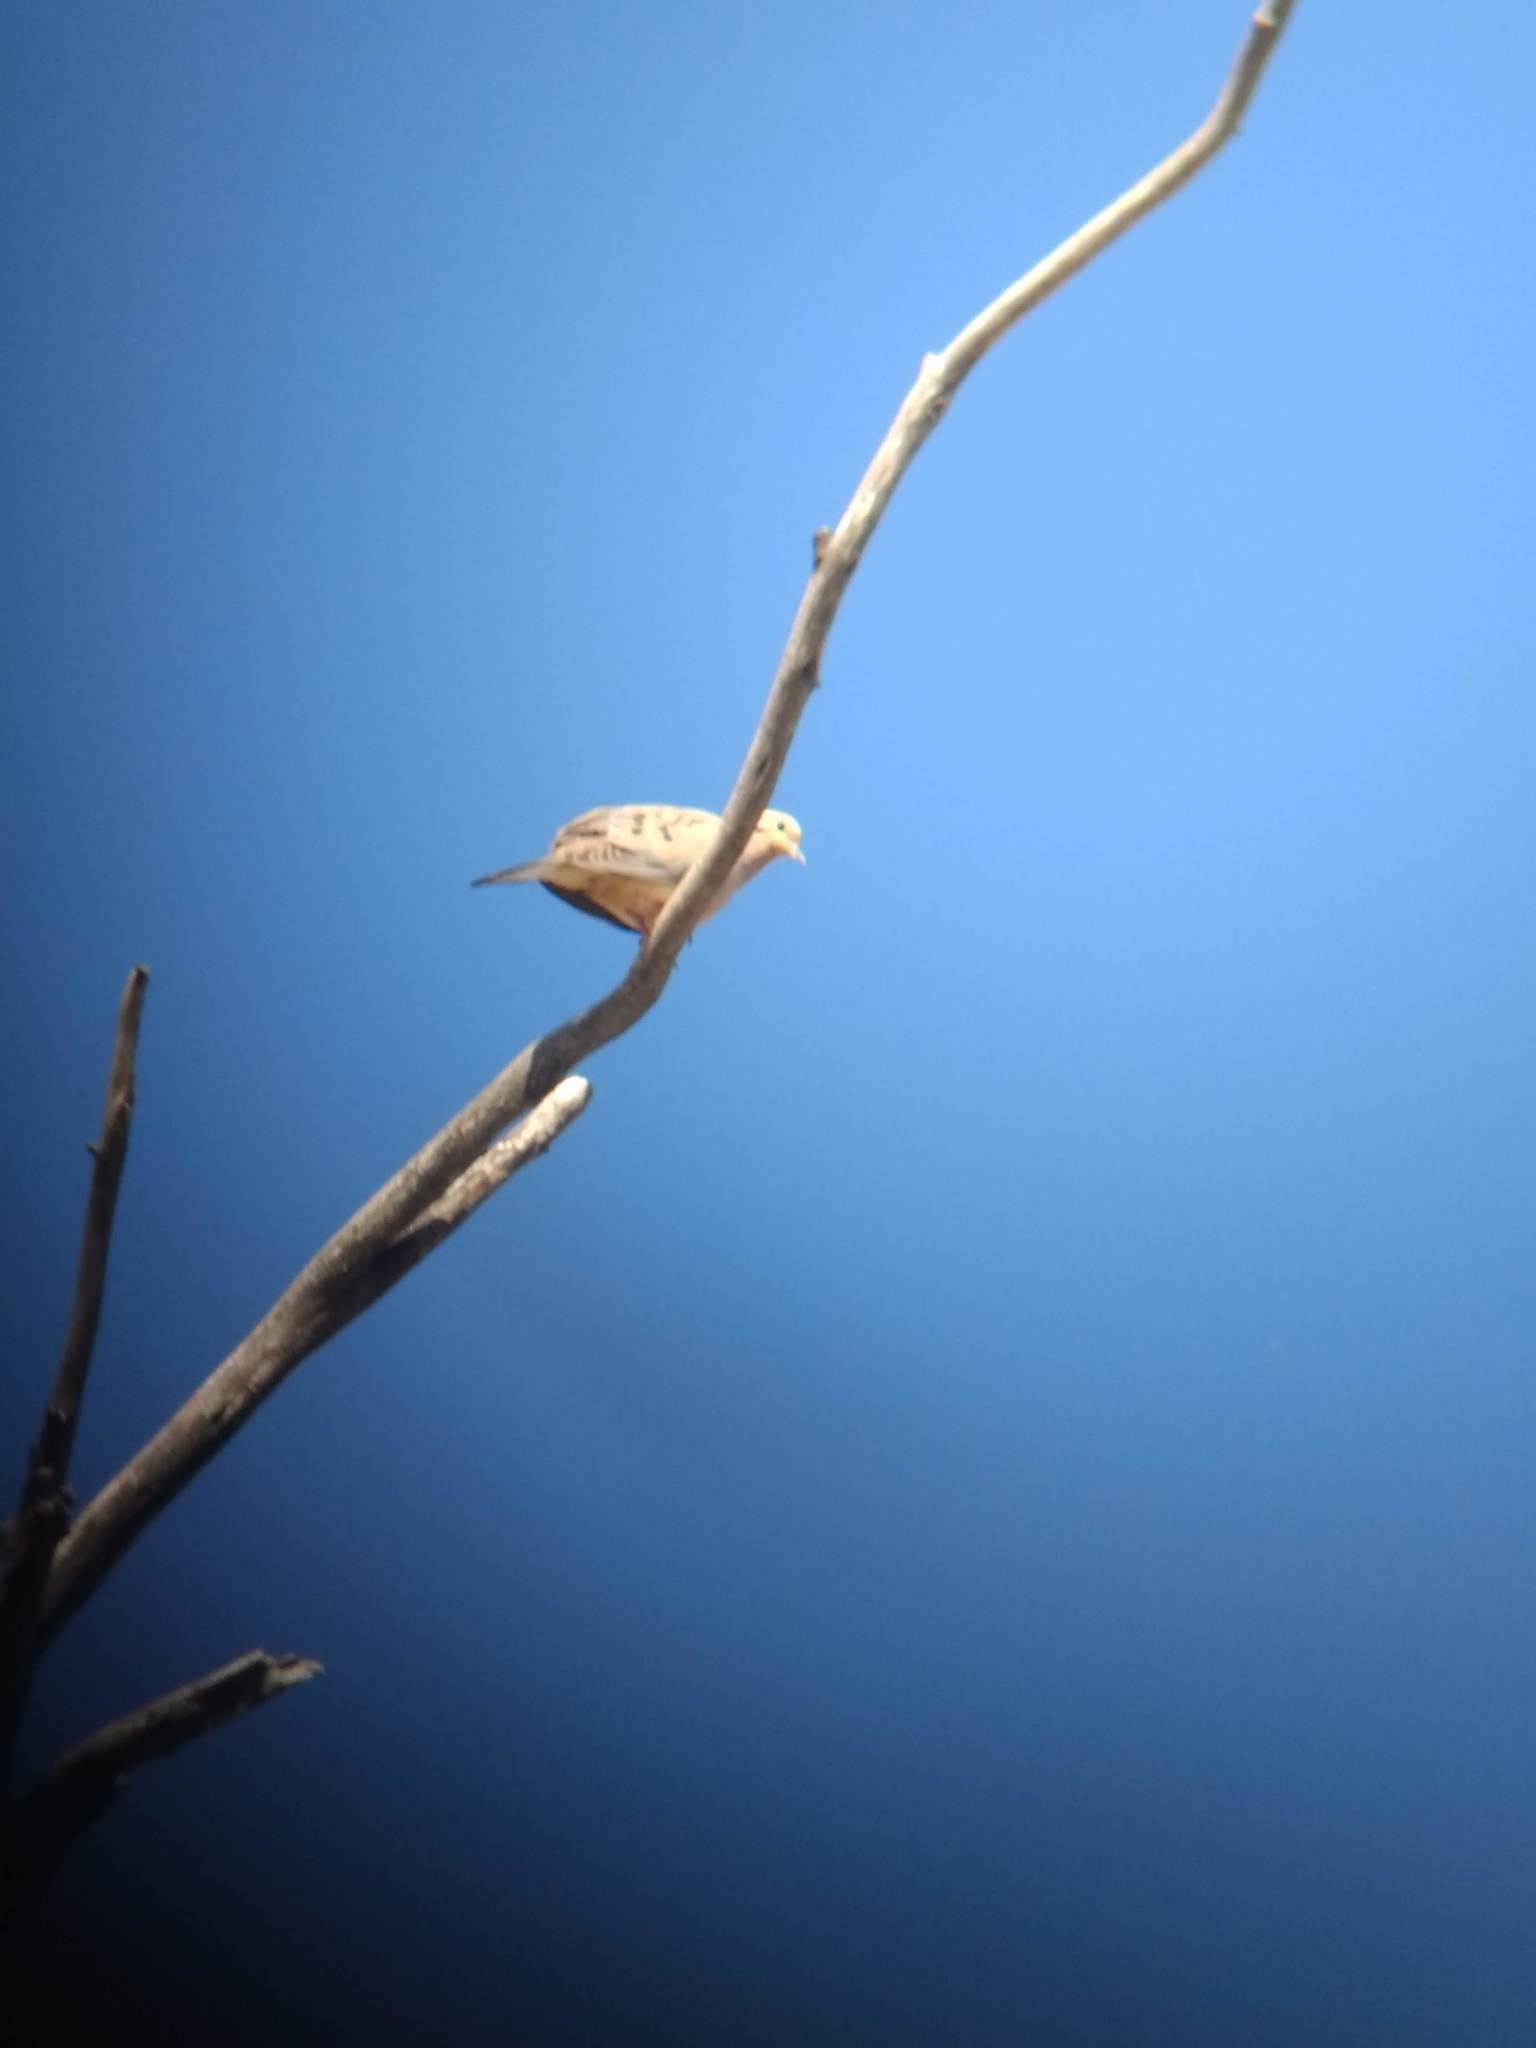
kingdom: Animalia
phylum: Chordata
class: Aves
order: Columbiformes
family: Columbidae
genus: Zenaida
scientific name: Zenaida macroura
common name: Mourning dove
